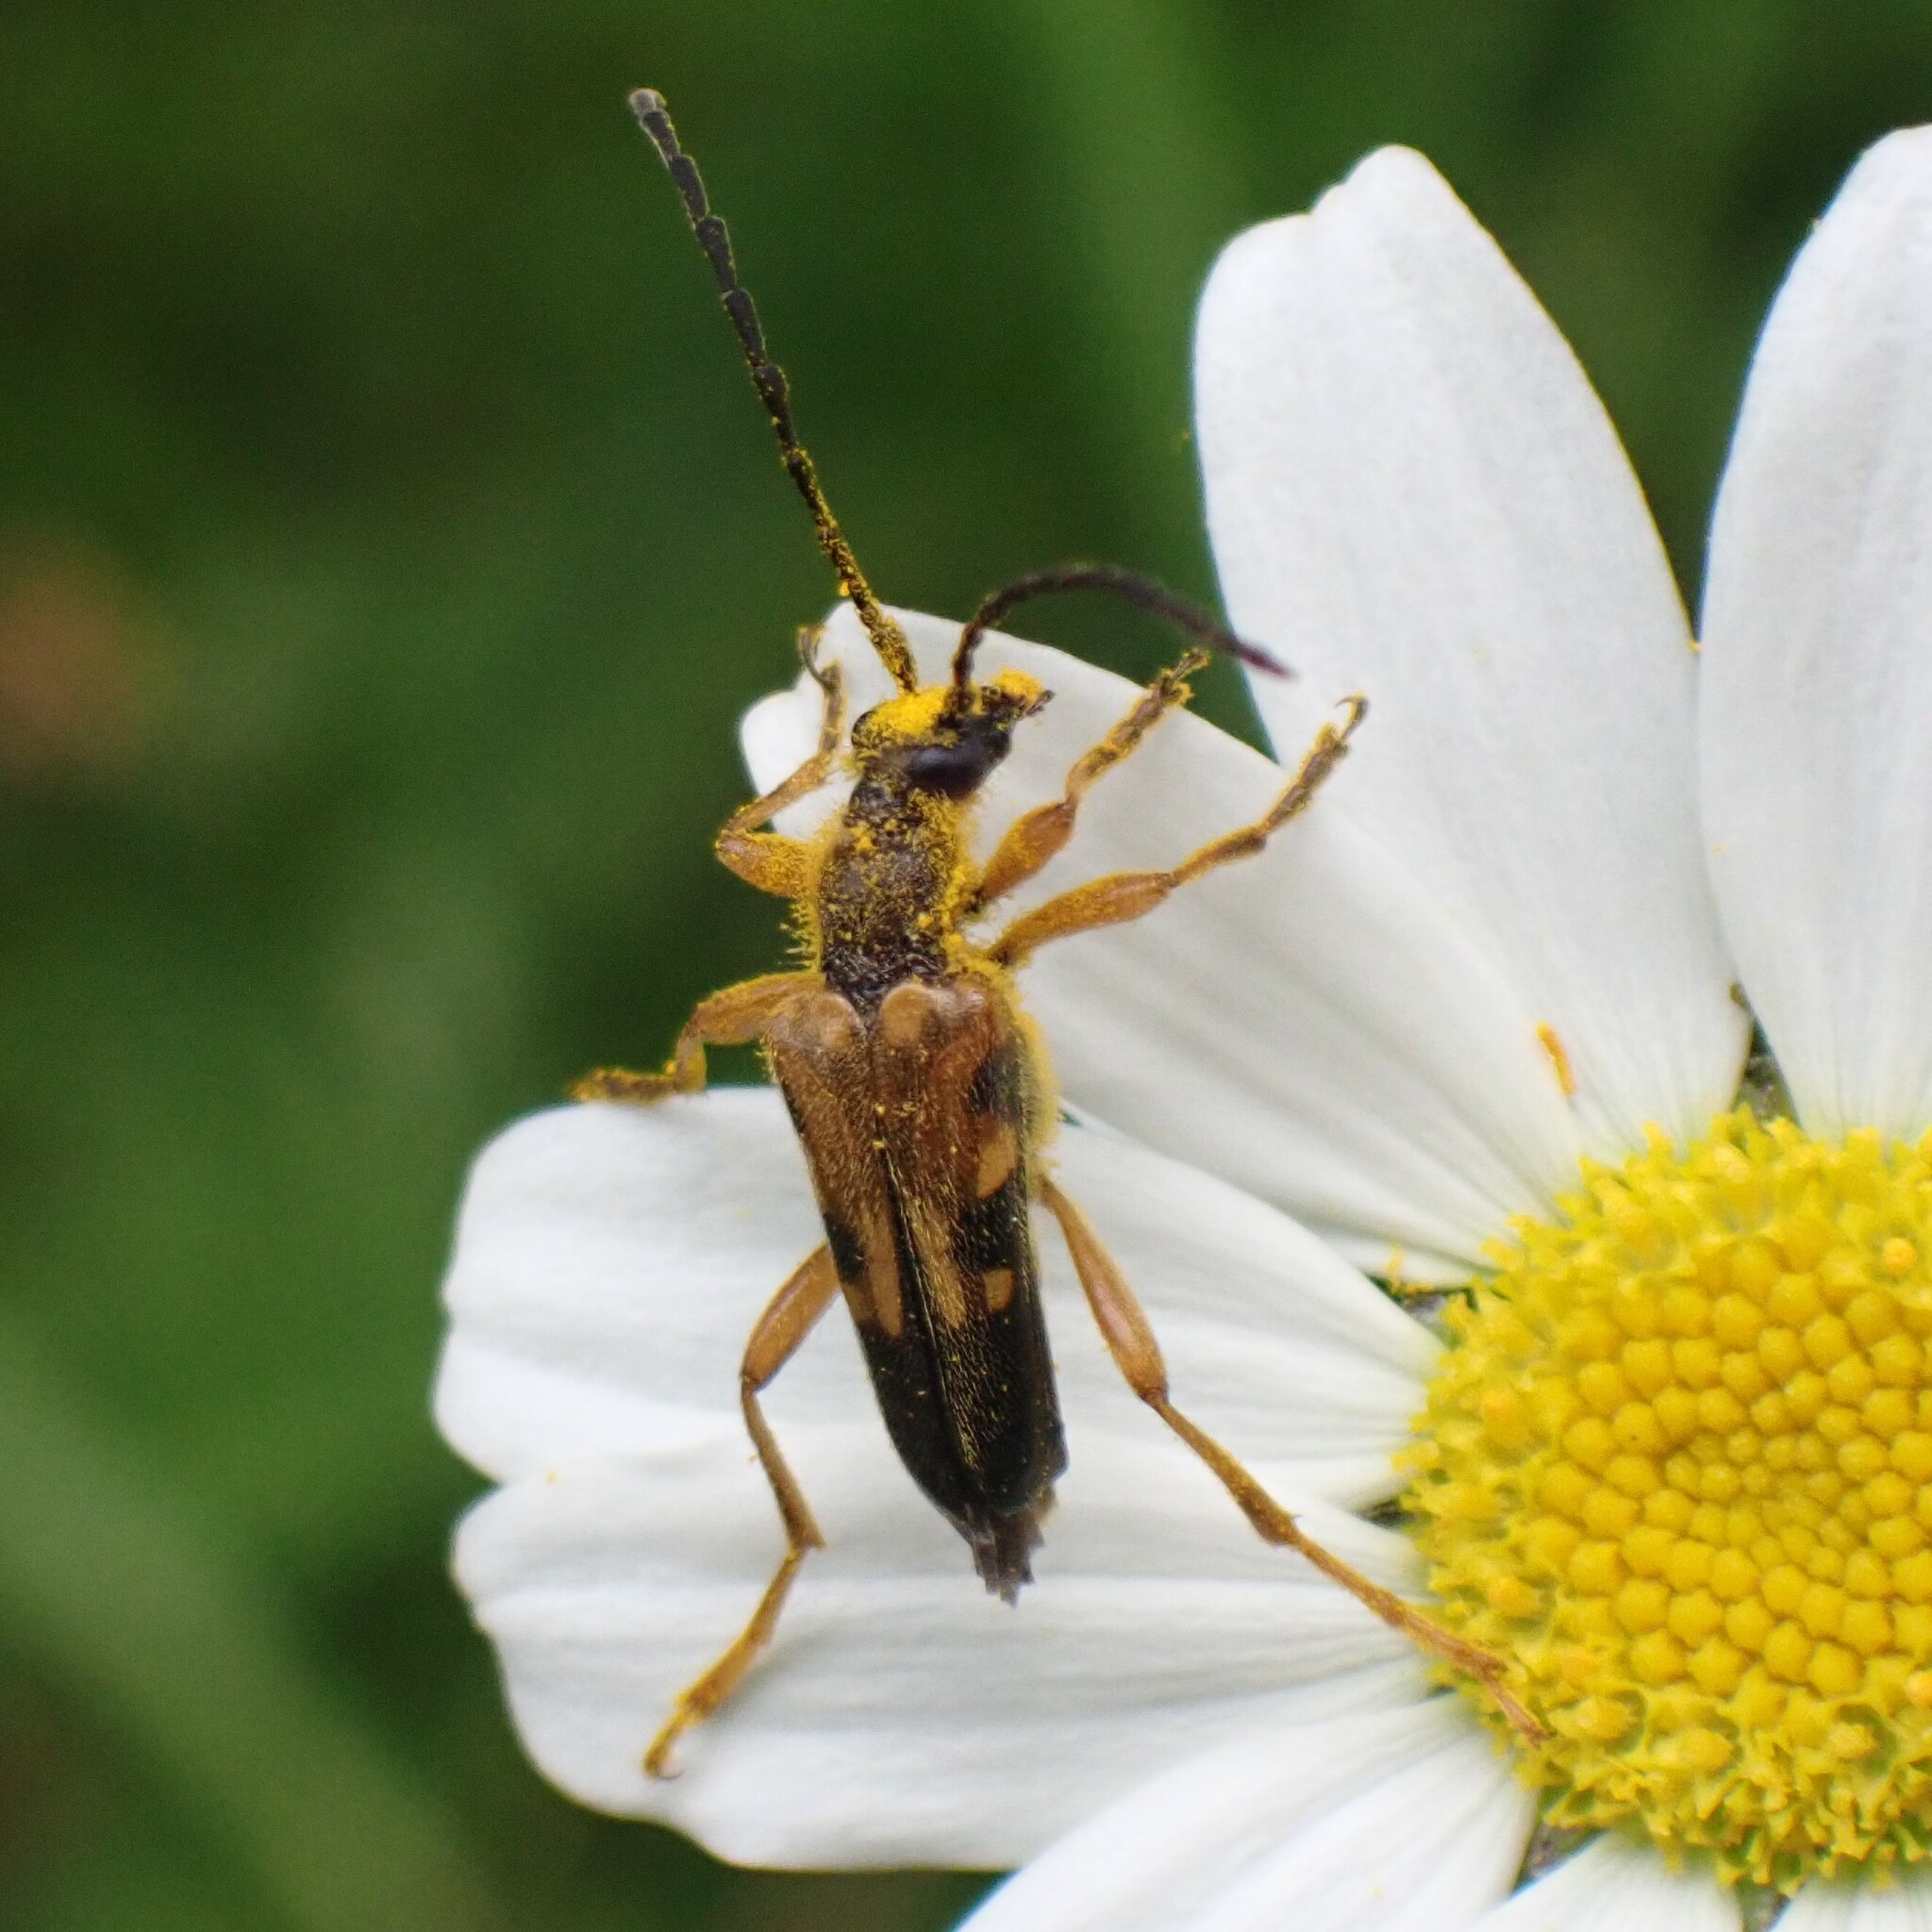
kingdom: Animalia
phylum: Arthropoda
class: Insecta
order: Coleoptera
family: Cerambycidae
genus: Xestoleptura
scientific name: Xestoleptura crassipes
